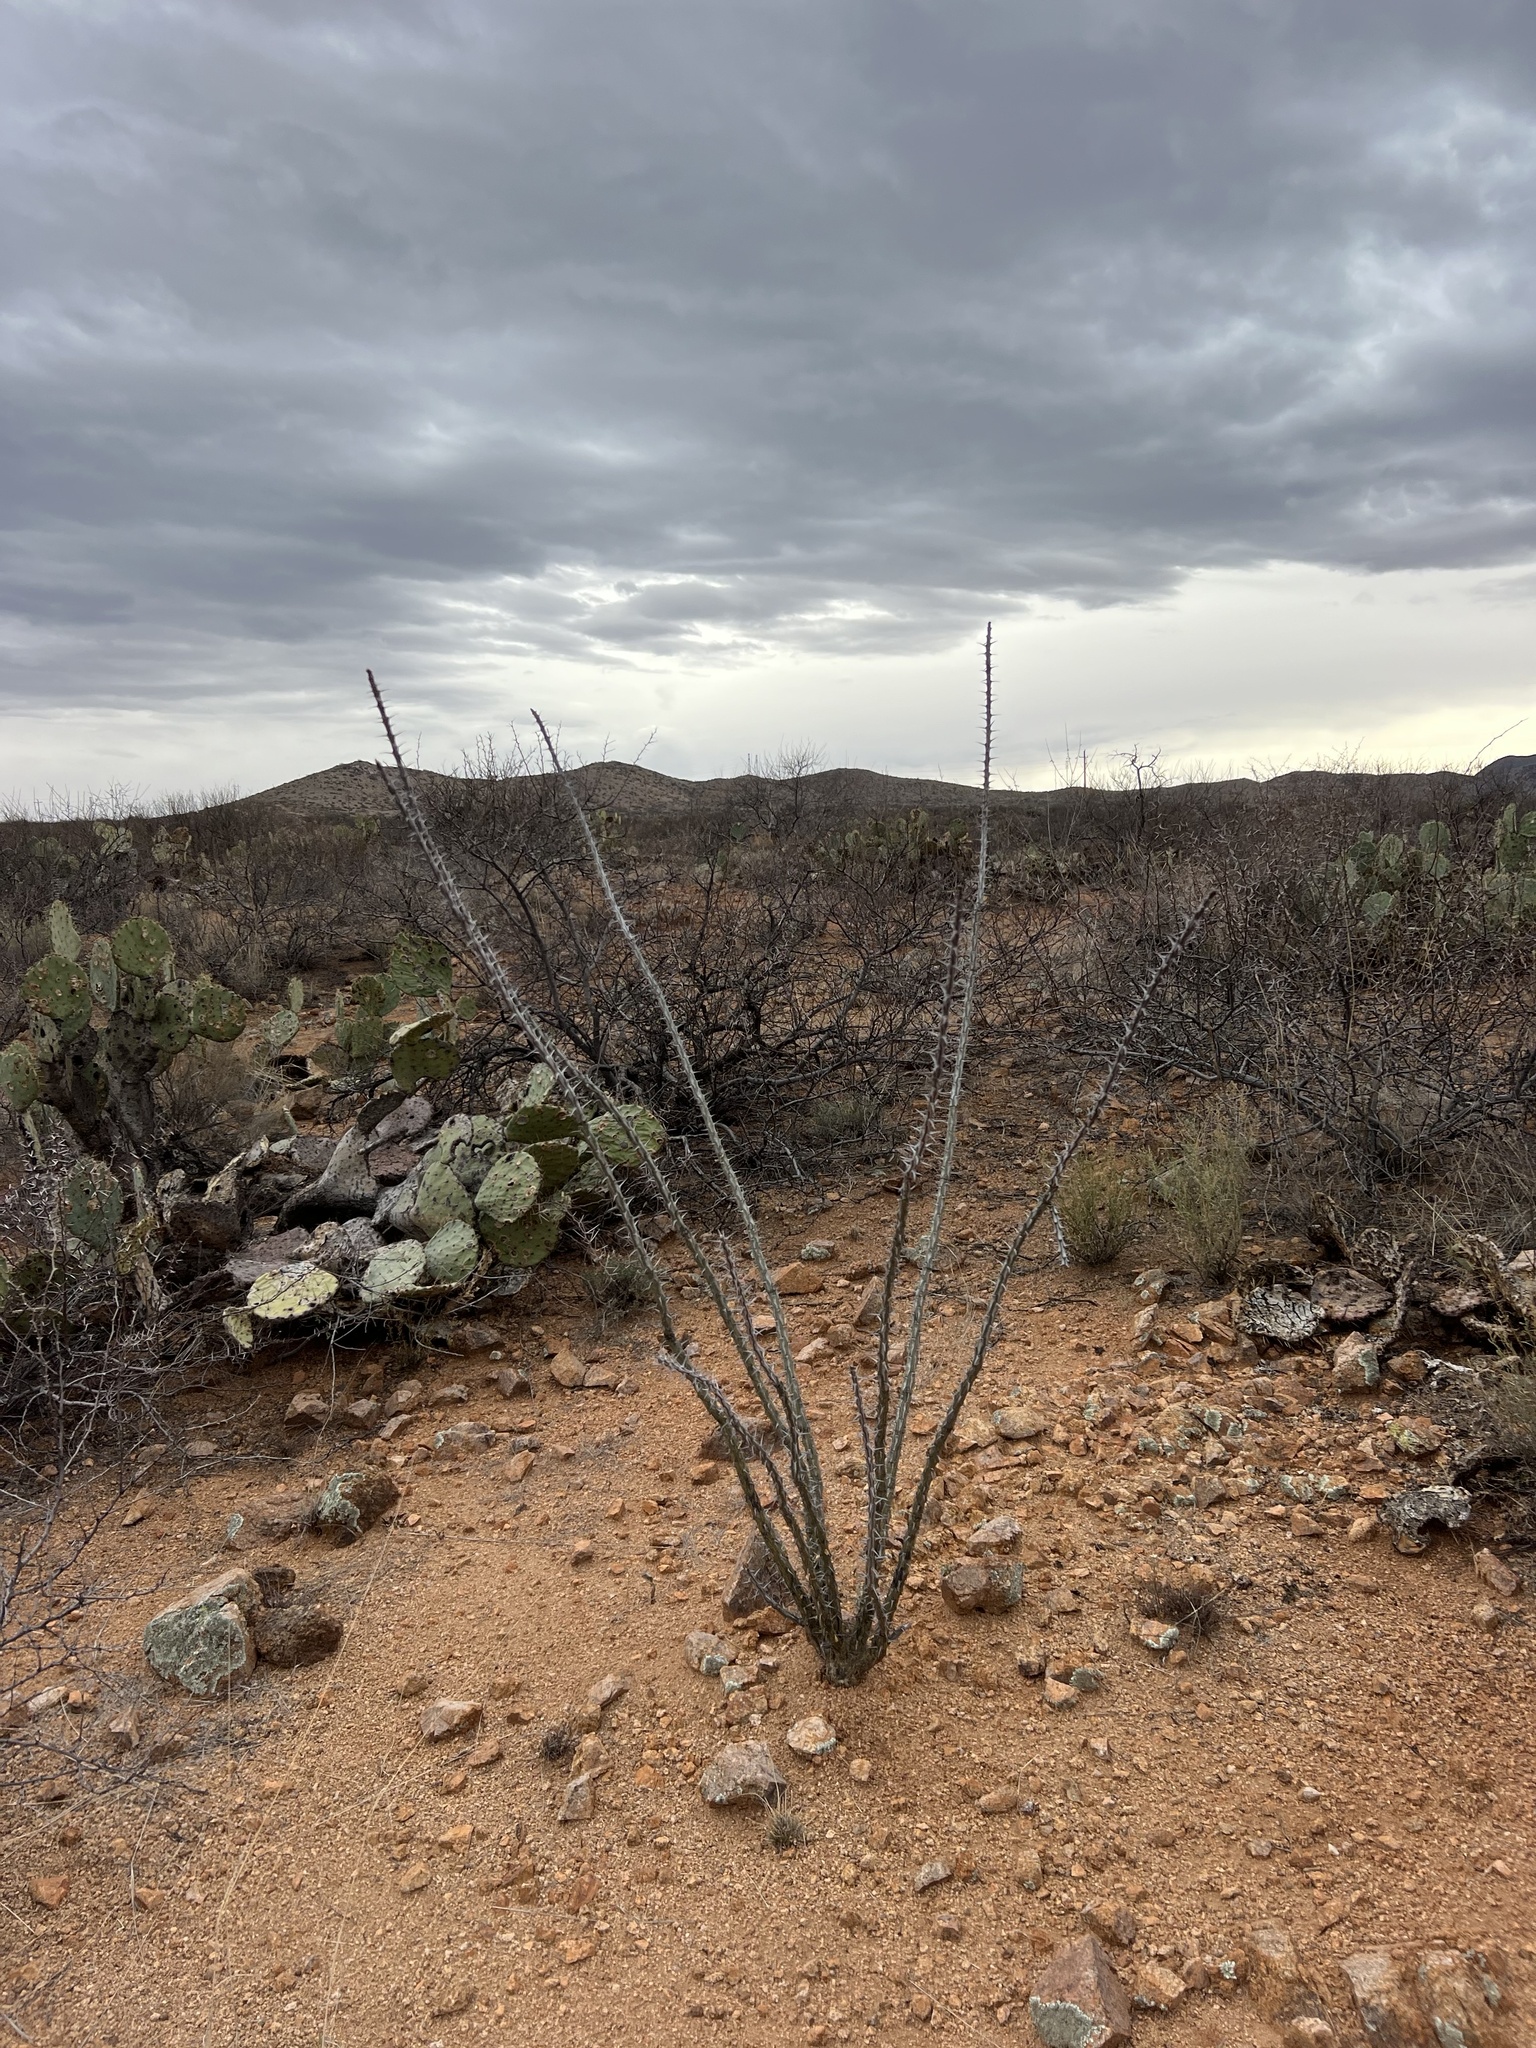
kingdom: Plantae
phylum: Tracheophyta
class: Magnoliopsida
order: Ericales
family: Fouquieriaceae
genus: Fouquieria
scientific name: Fouquieria splendens
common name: Vine-cactus
